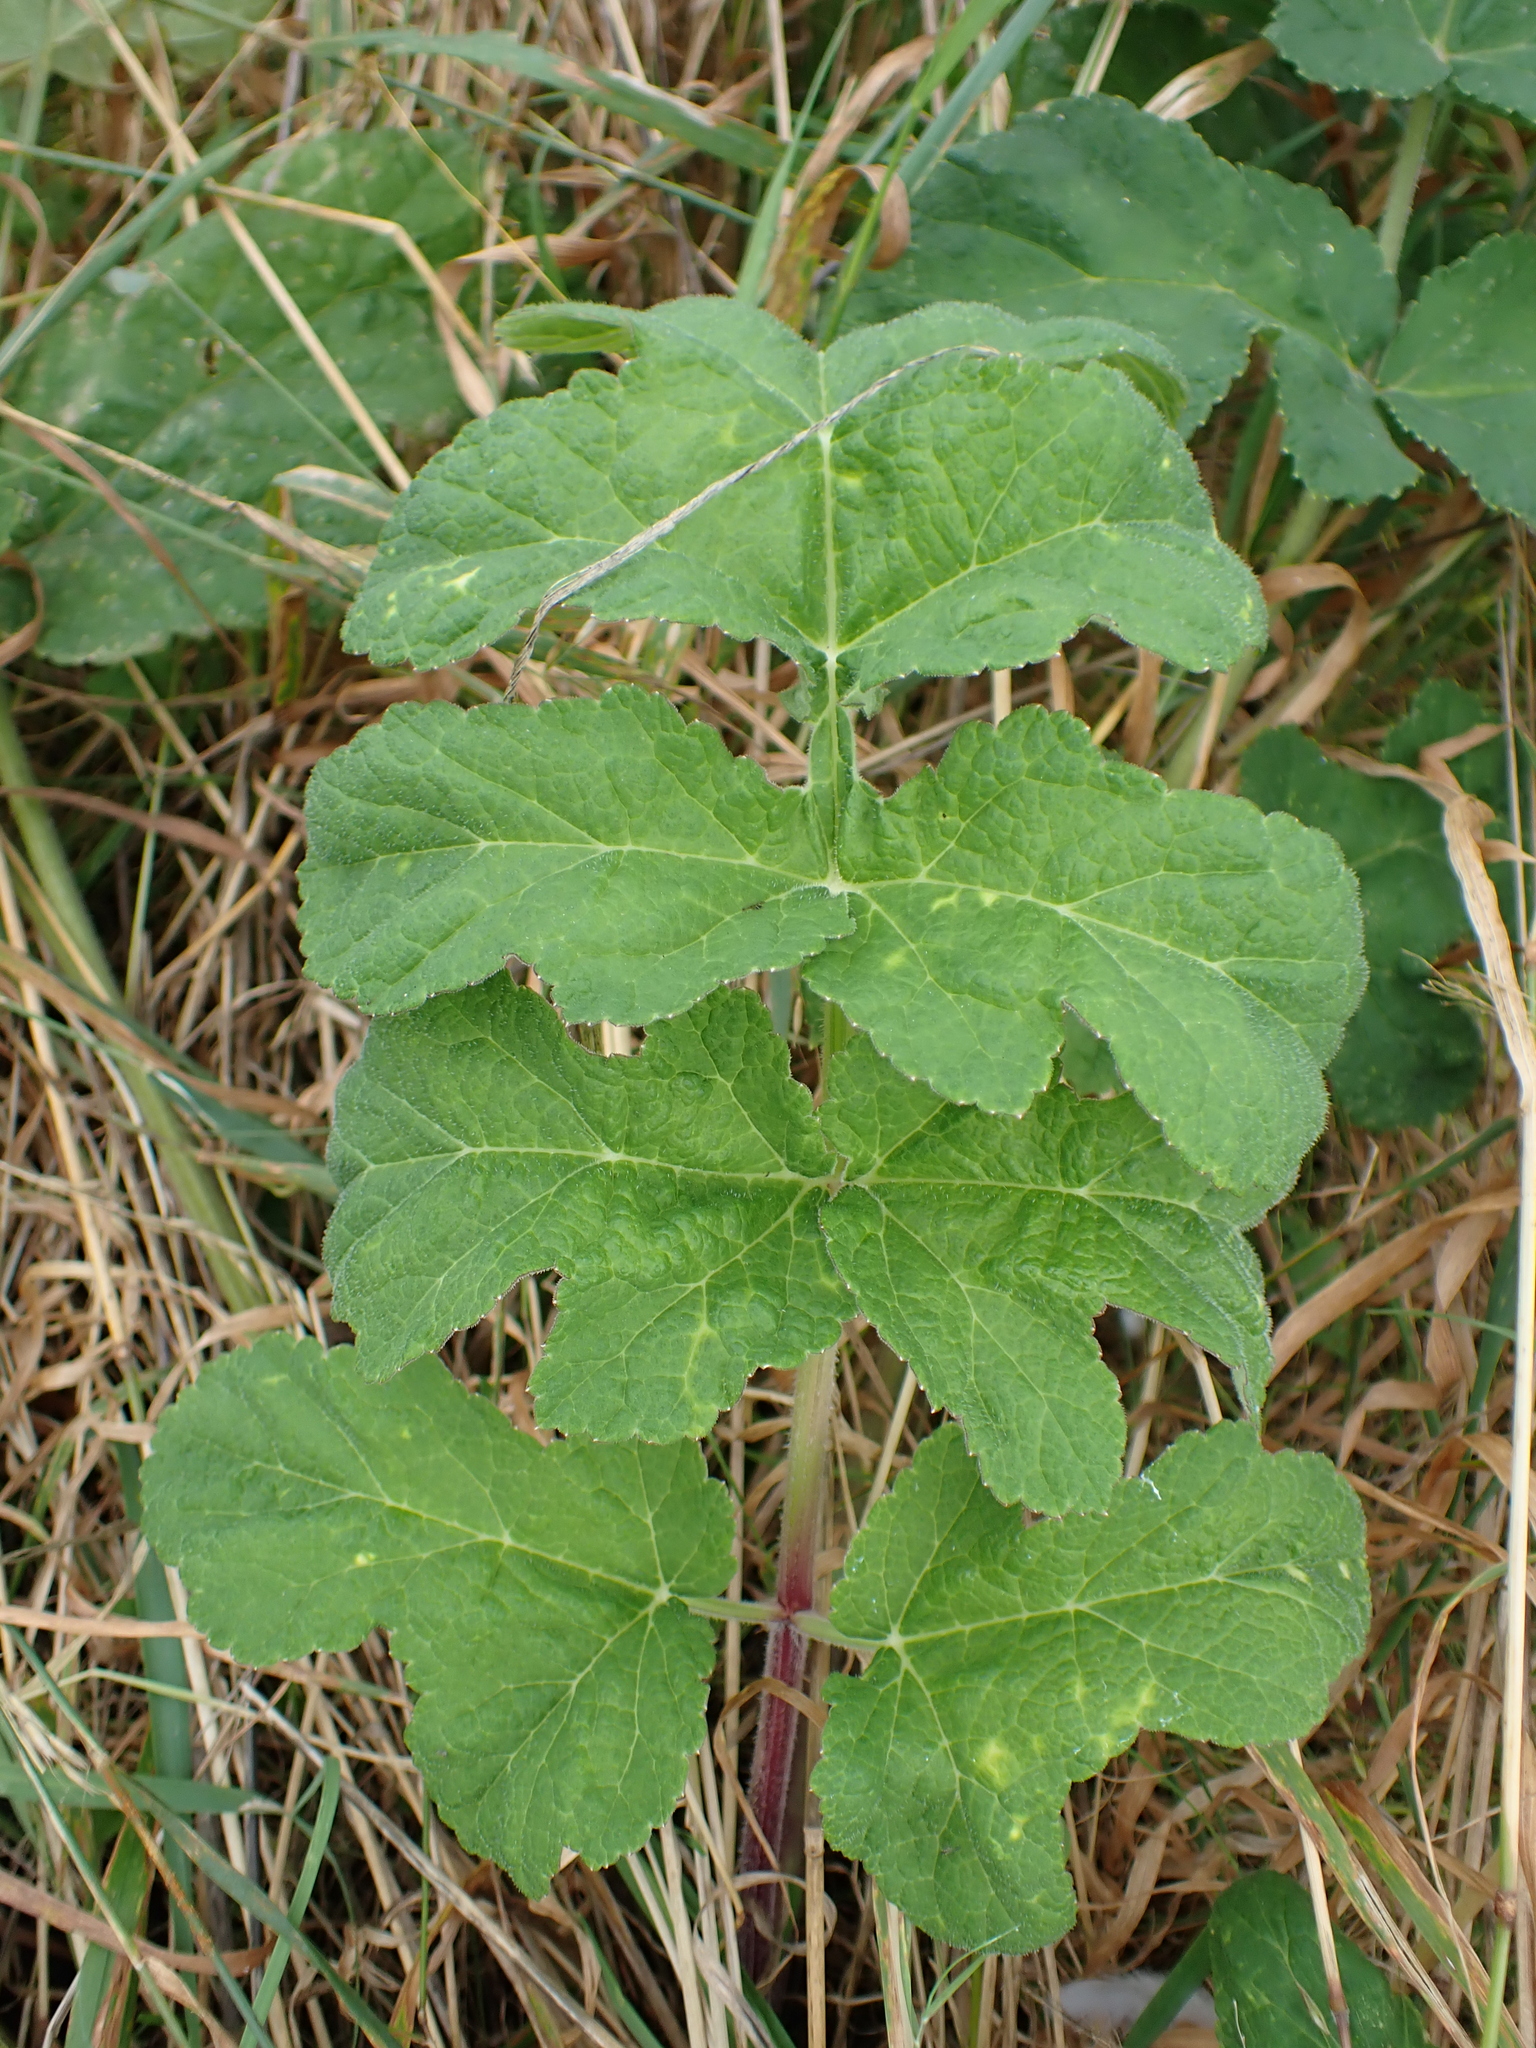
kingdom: Plantae
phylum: Tracheophyta
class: Magnoliopsida
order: Apiales
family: Apiaceae
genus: Heracleum
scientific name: Heracleum sphondylium
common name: Hogweed
